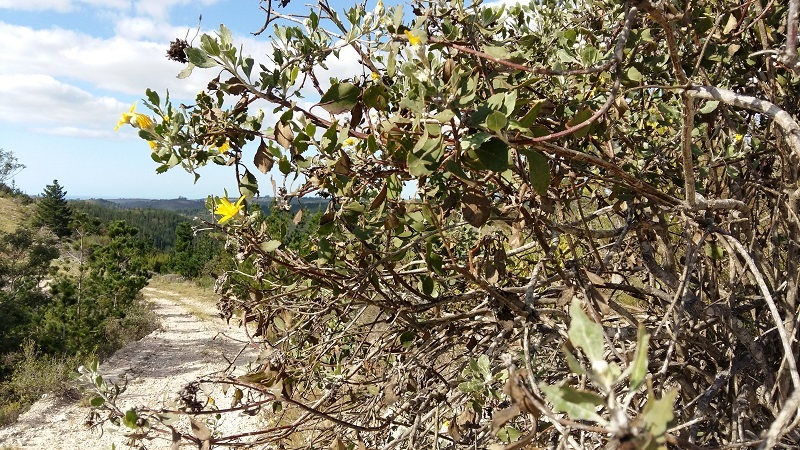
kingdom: Plantae
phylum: Tracheophyta
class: Magnoliopsida
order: Asterales
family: Asteraceae
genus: Osteospermum
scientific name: Osteospermum moniliferum
